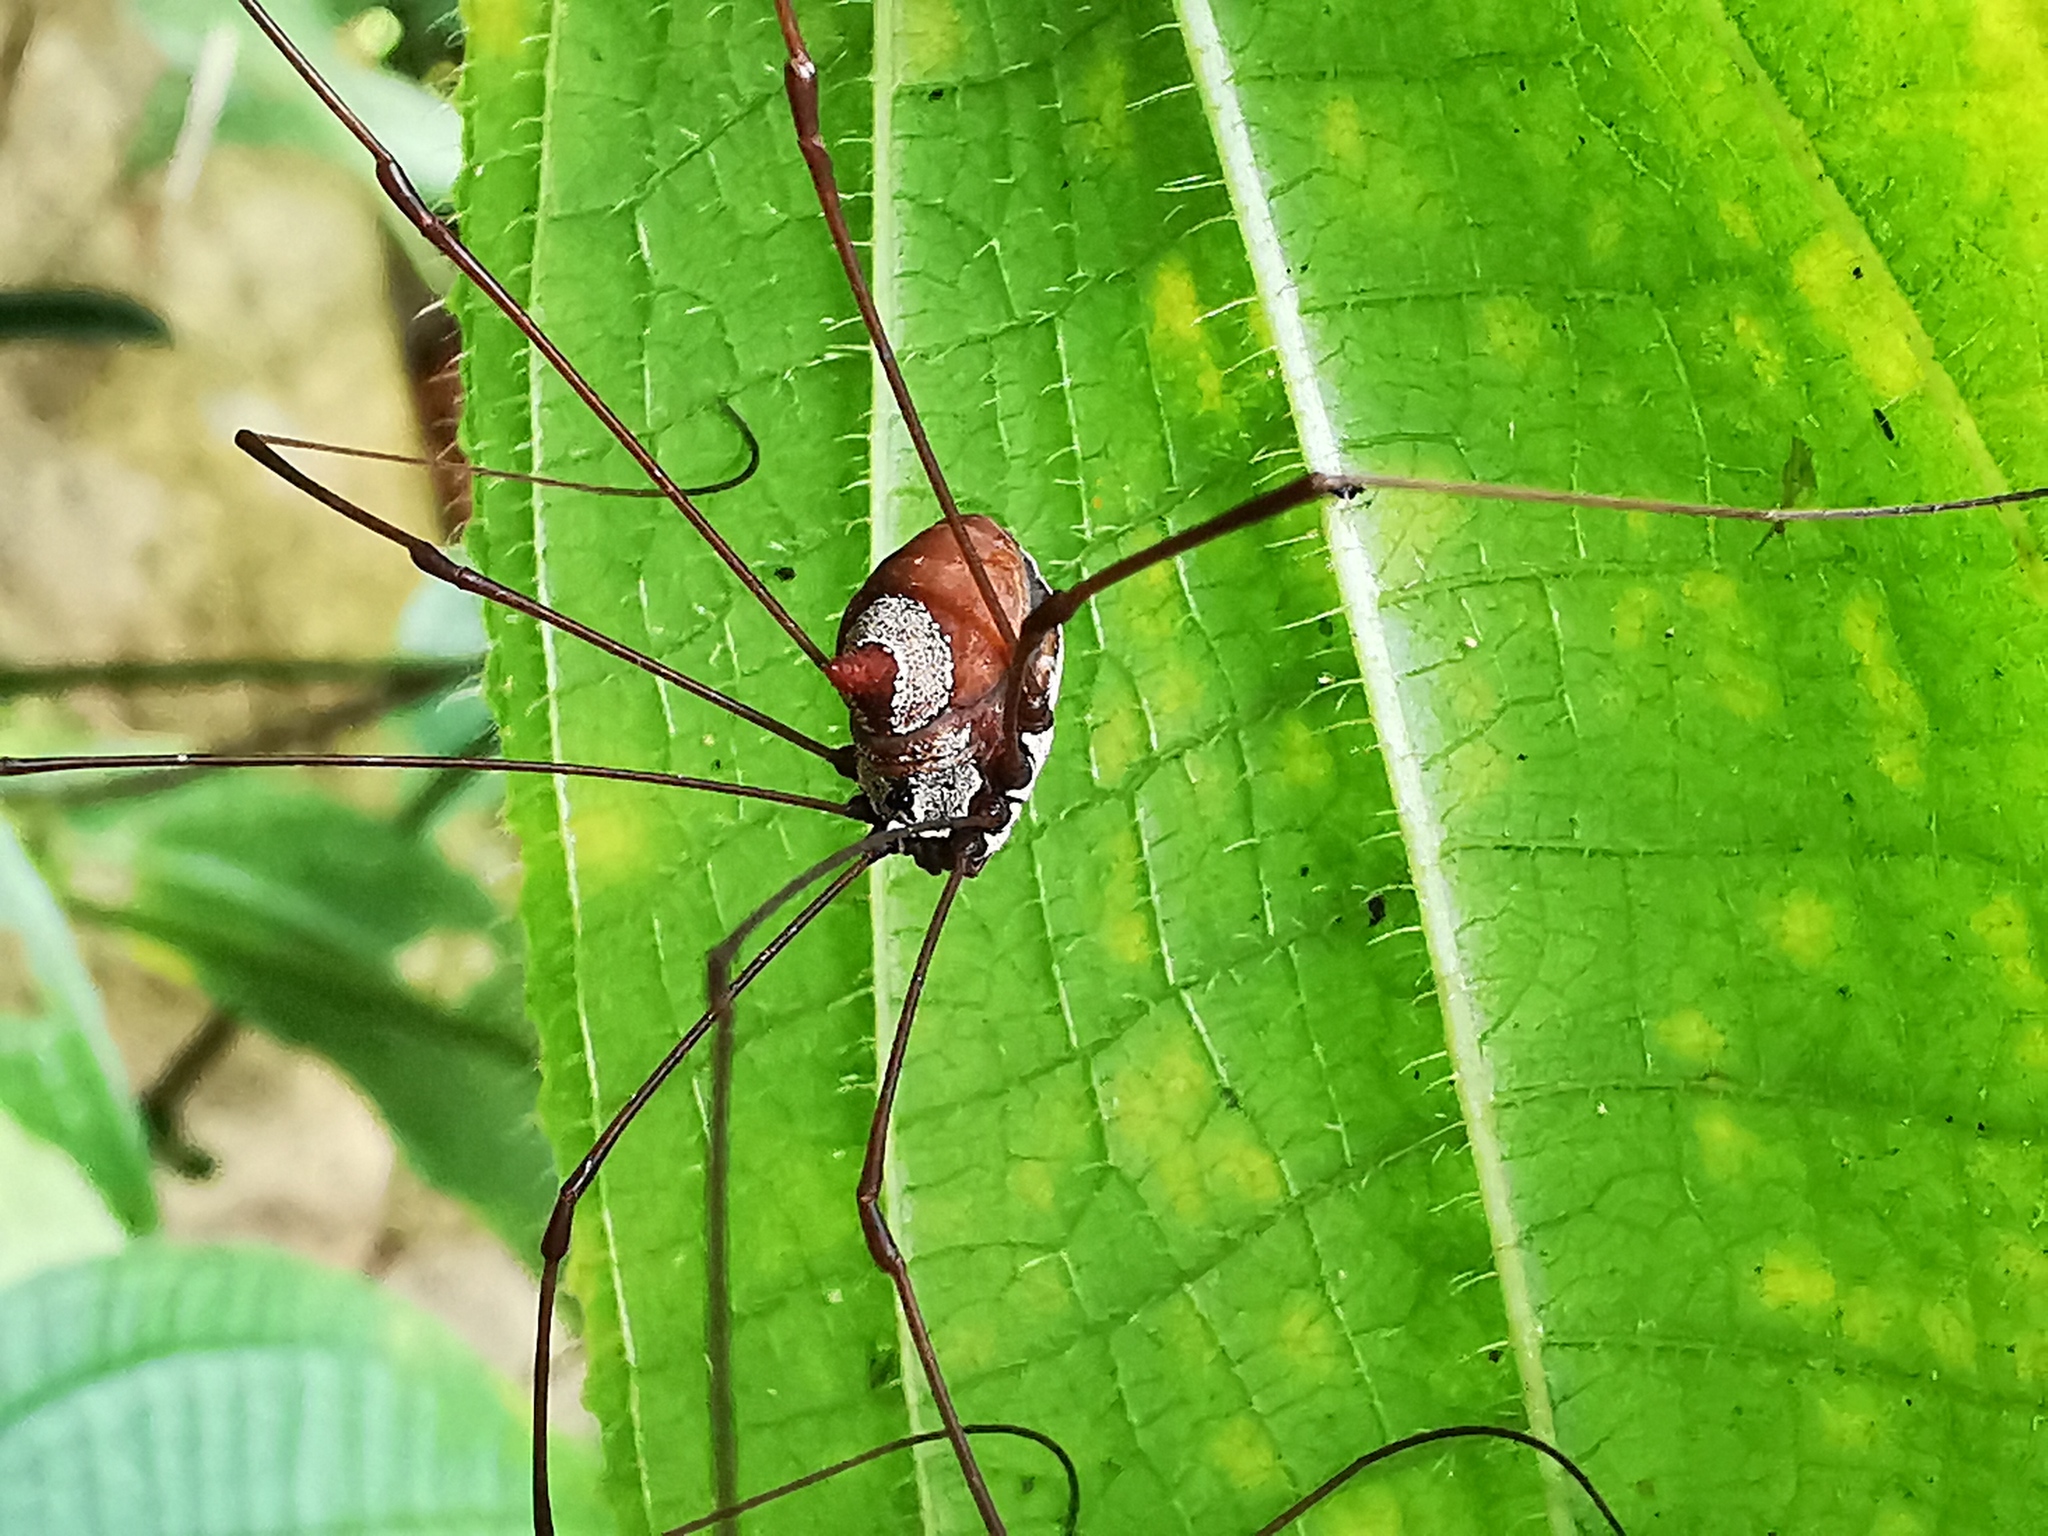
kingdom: Animalia
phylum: Arthropoda
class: Arachnida
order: Opiliones
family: Sclerosomatidae
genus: Marthana
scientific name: Marthana niveata
